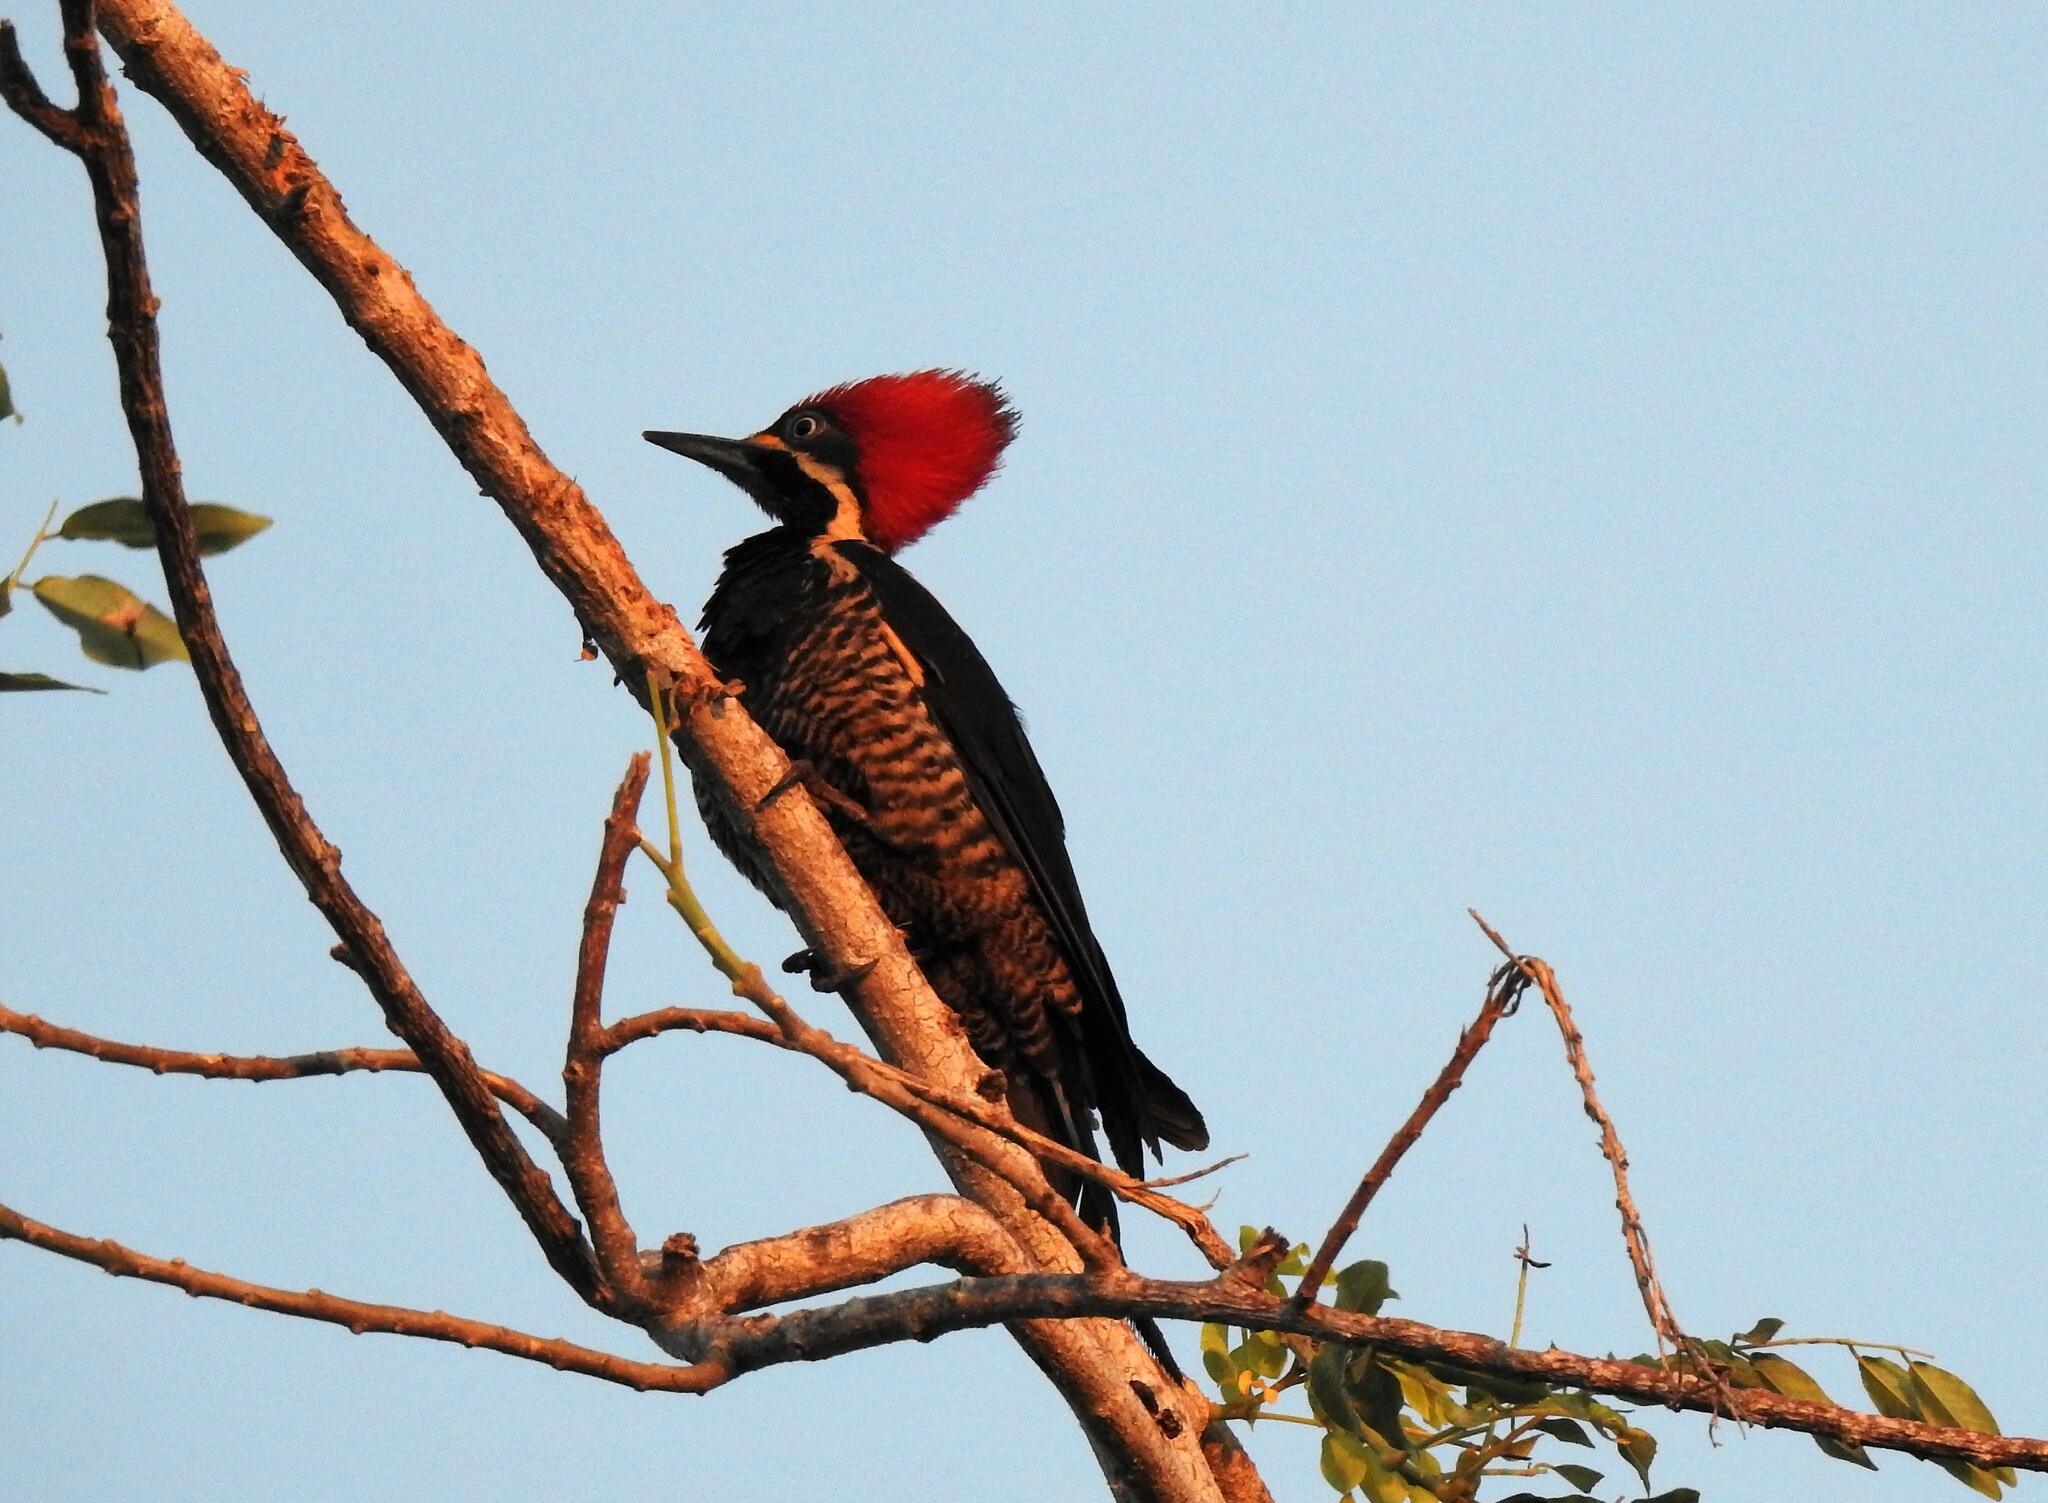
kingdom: Animalia
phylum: Chordata
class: Aves
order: Piciformes
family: Picidae
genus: Dryocopus
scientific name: Dryocopus lineatus
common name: Lineated woodpecker
